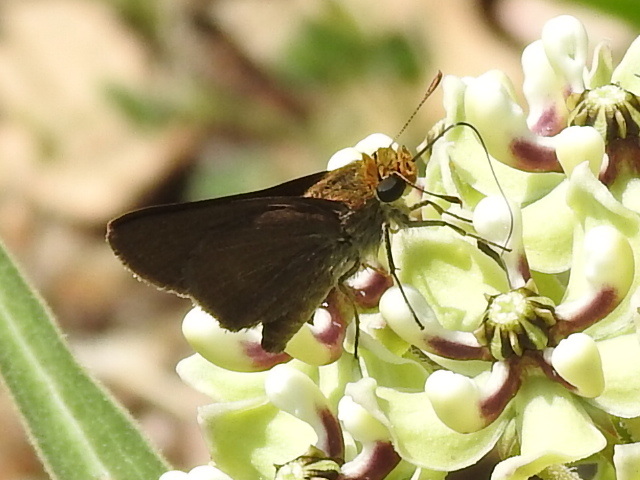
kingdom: Animalia
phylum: Arthropoda
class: Insecta
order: Lepidoptera
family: Hesperiidae
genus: Euphyes
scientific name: Euphyes vestris
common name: Dun skipper
